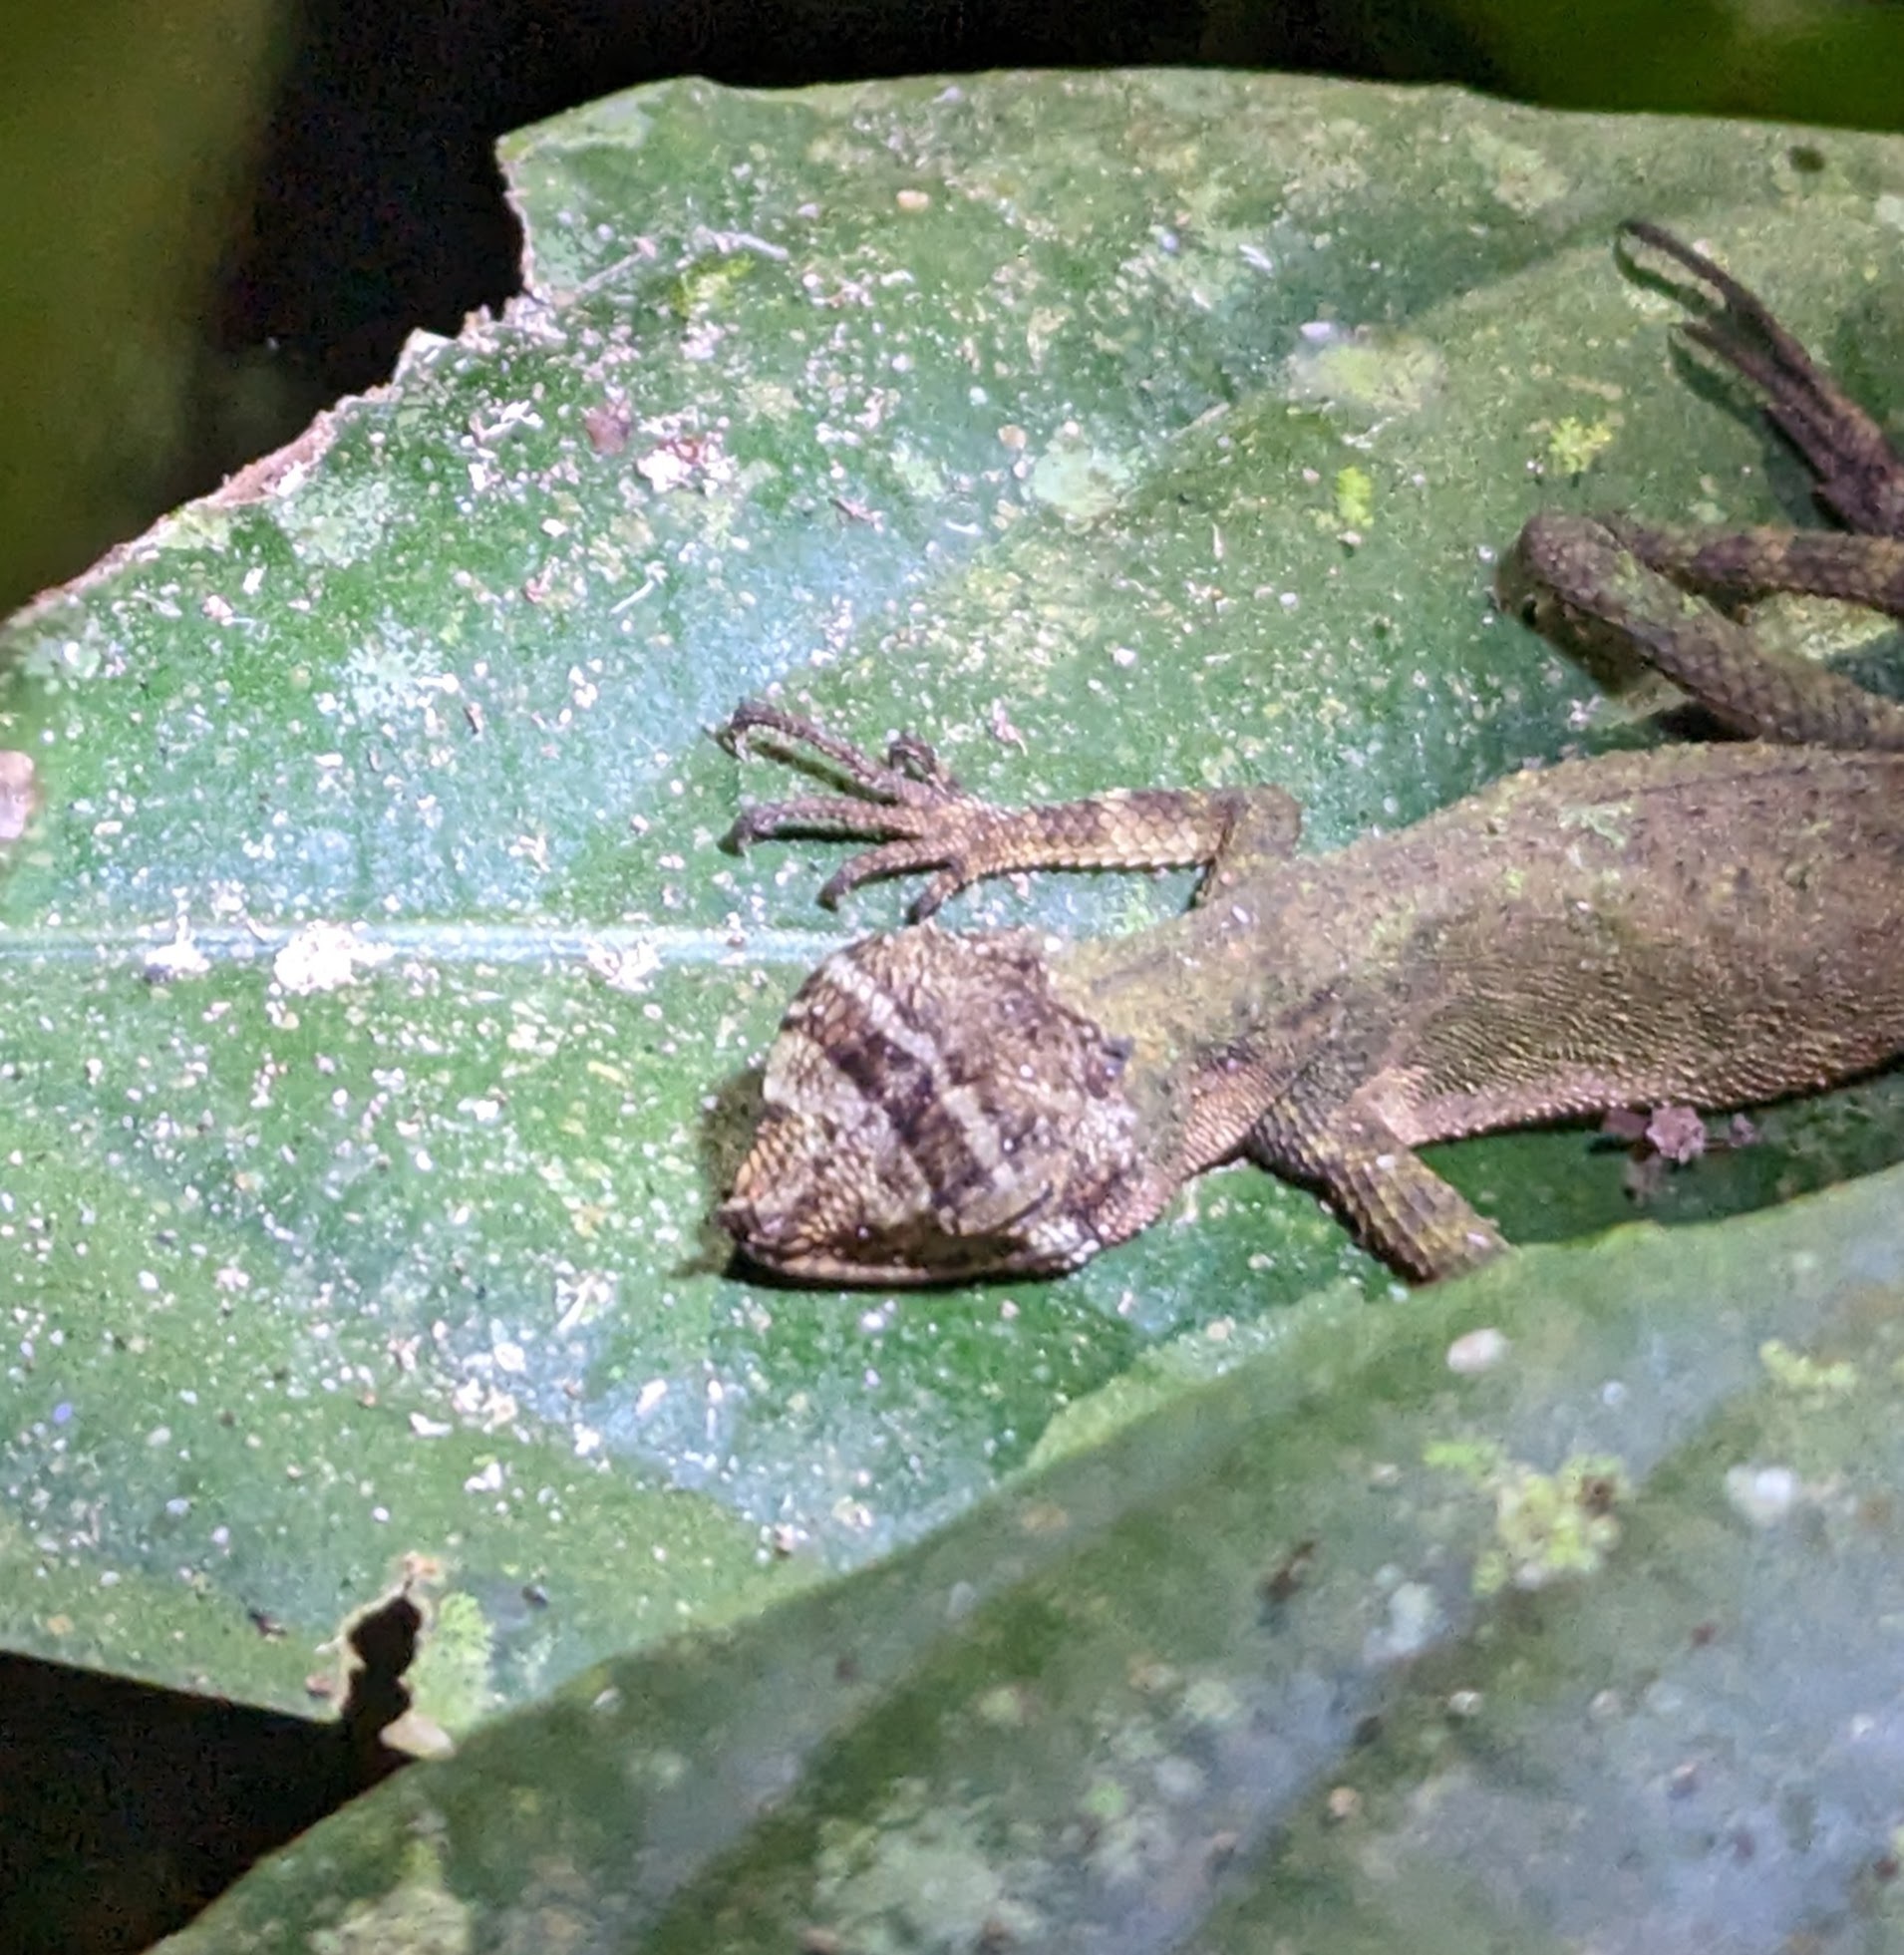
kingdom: Animalia
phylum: Chordata
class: Squamata
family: Agamidae
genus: Aphaniotis
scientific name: Aphaniotis ornata
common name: Ornate earless agama
